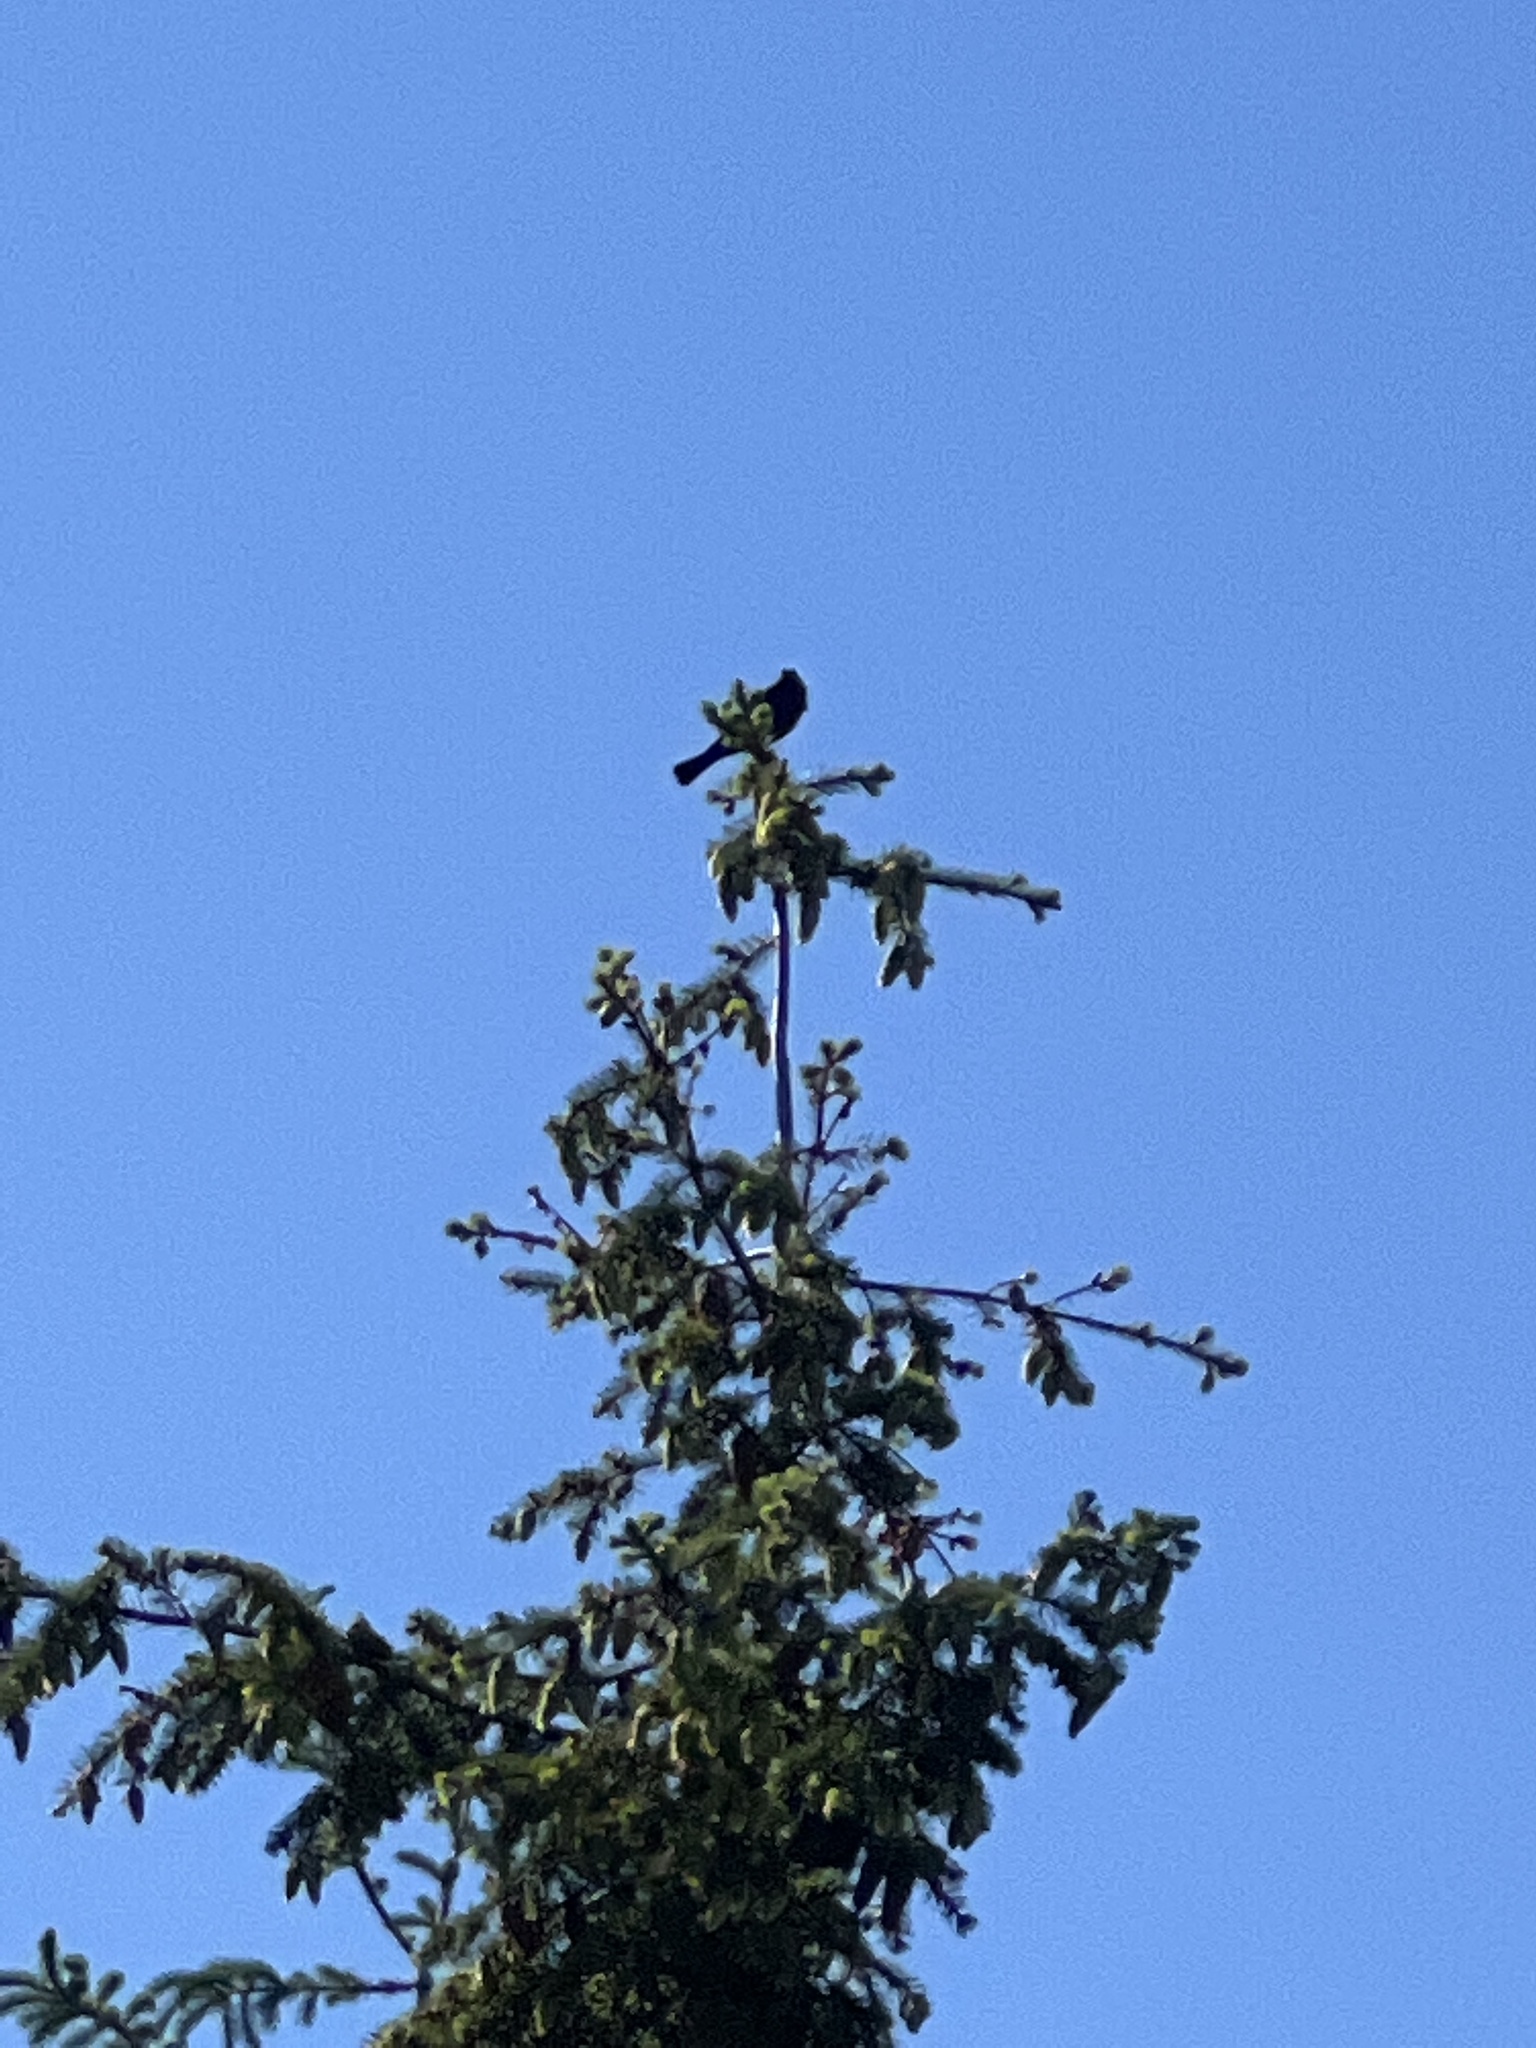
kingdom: Animalia
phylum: Chordata
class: Aves
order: Passeriformes
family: Icteridae
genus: Molothrus
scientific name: Molothrus ater
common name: Brown-headed cowbird
